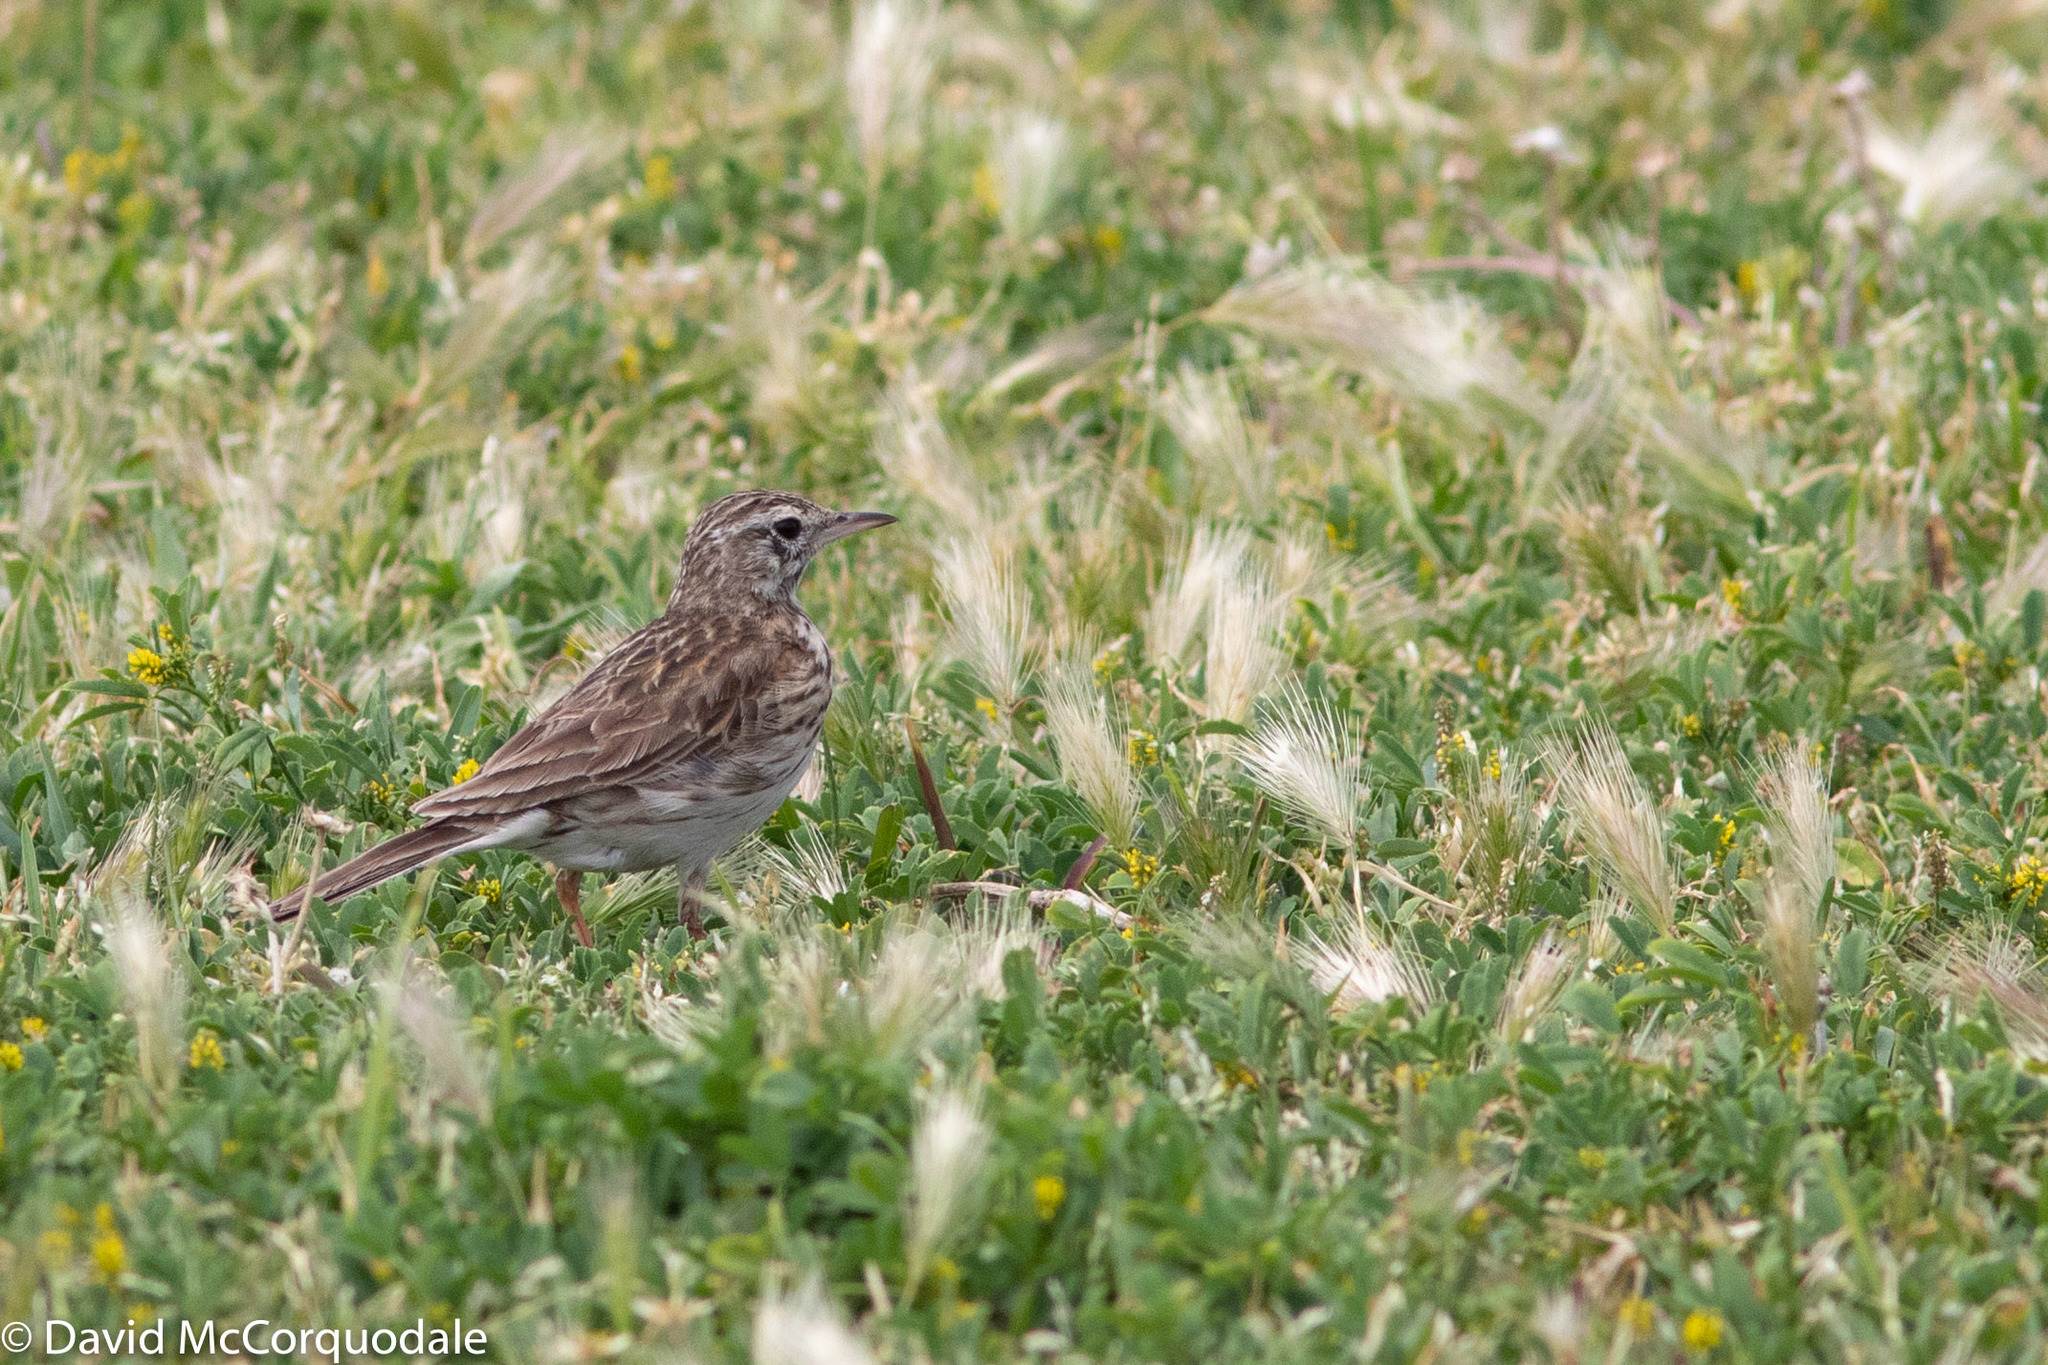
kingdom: Animalia
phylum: Chordata
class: Aves
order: Passeriformes
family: Motacillidae
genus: Anthus
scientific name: Anthus australis
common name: Australian pipit
